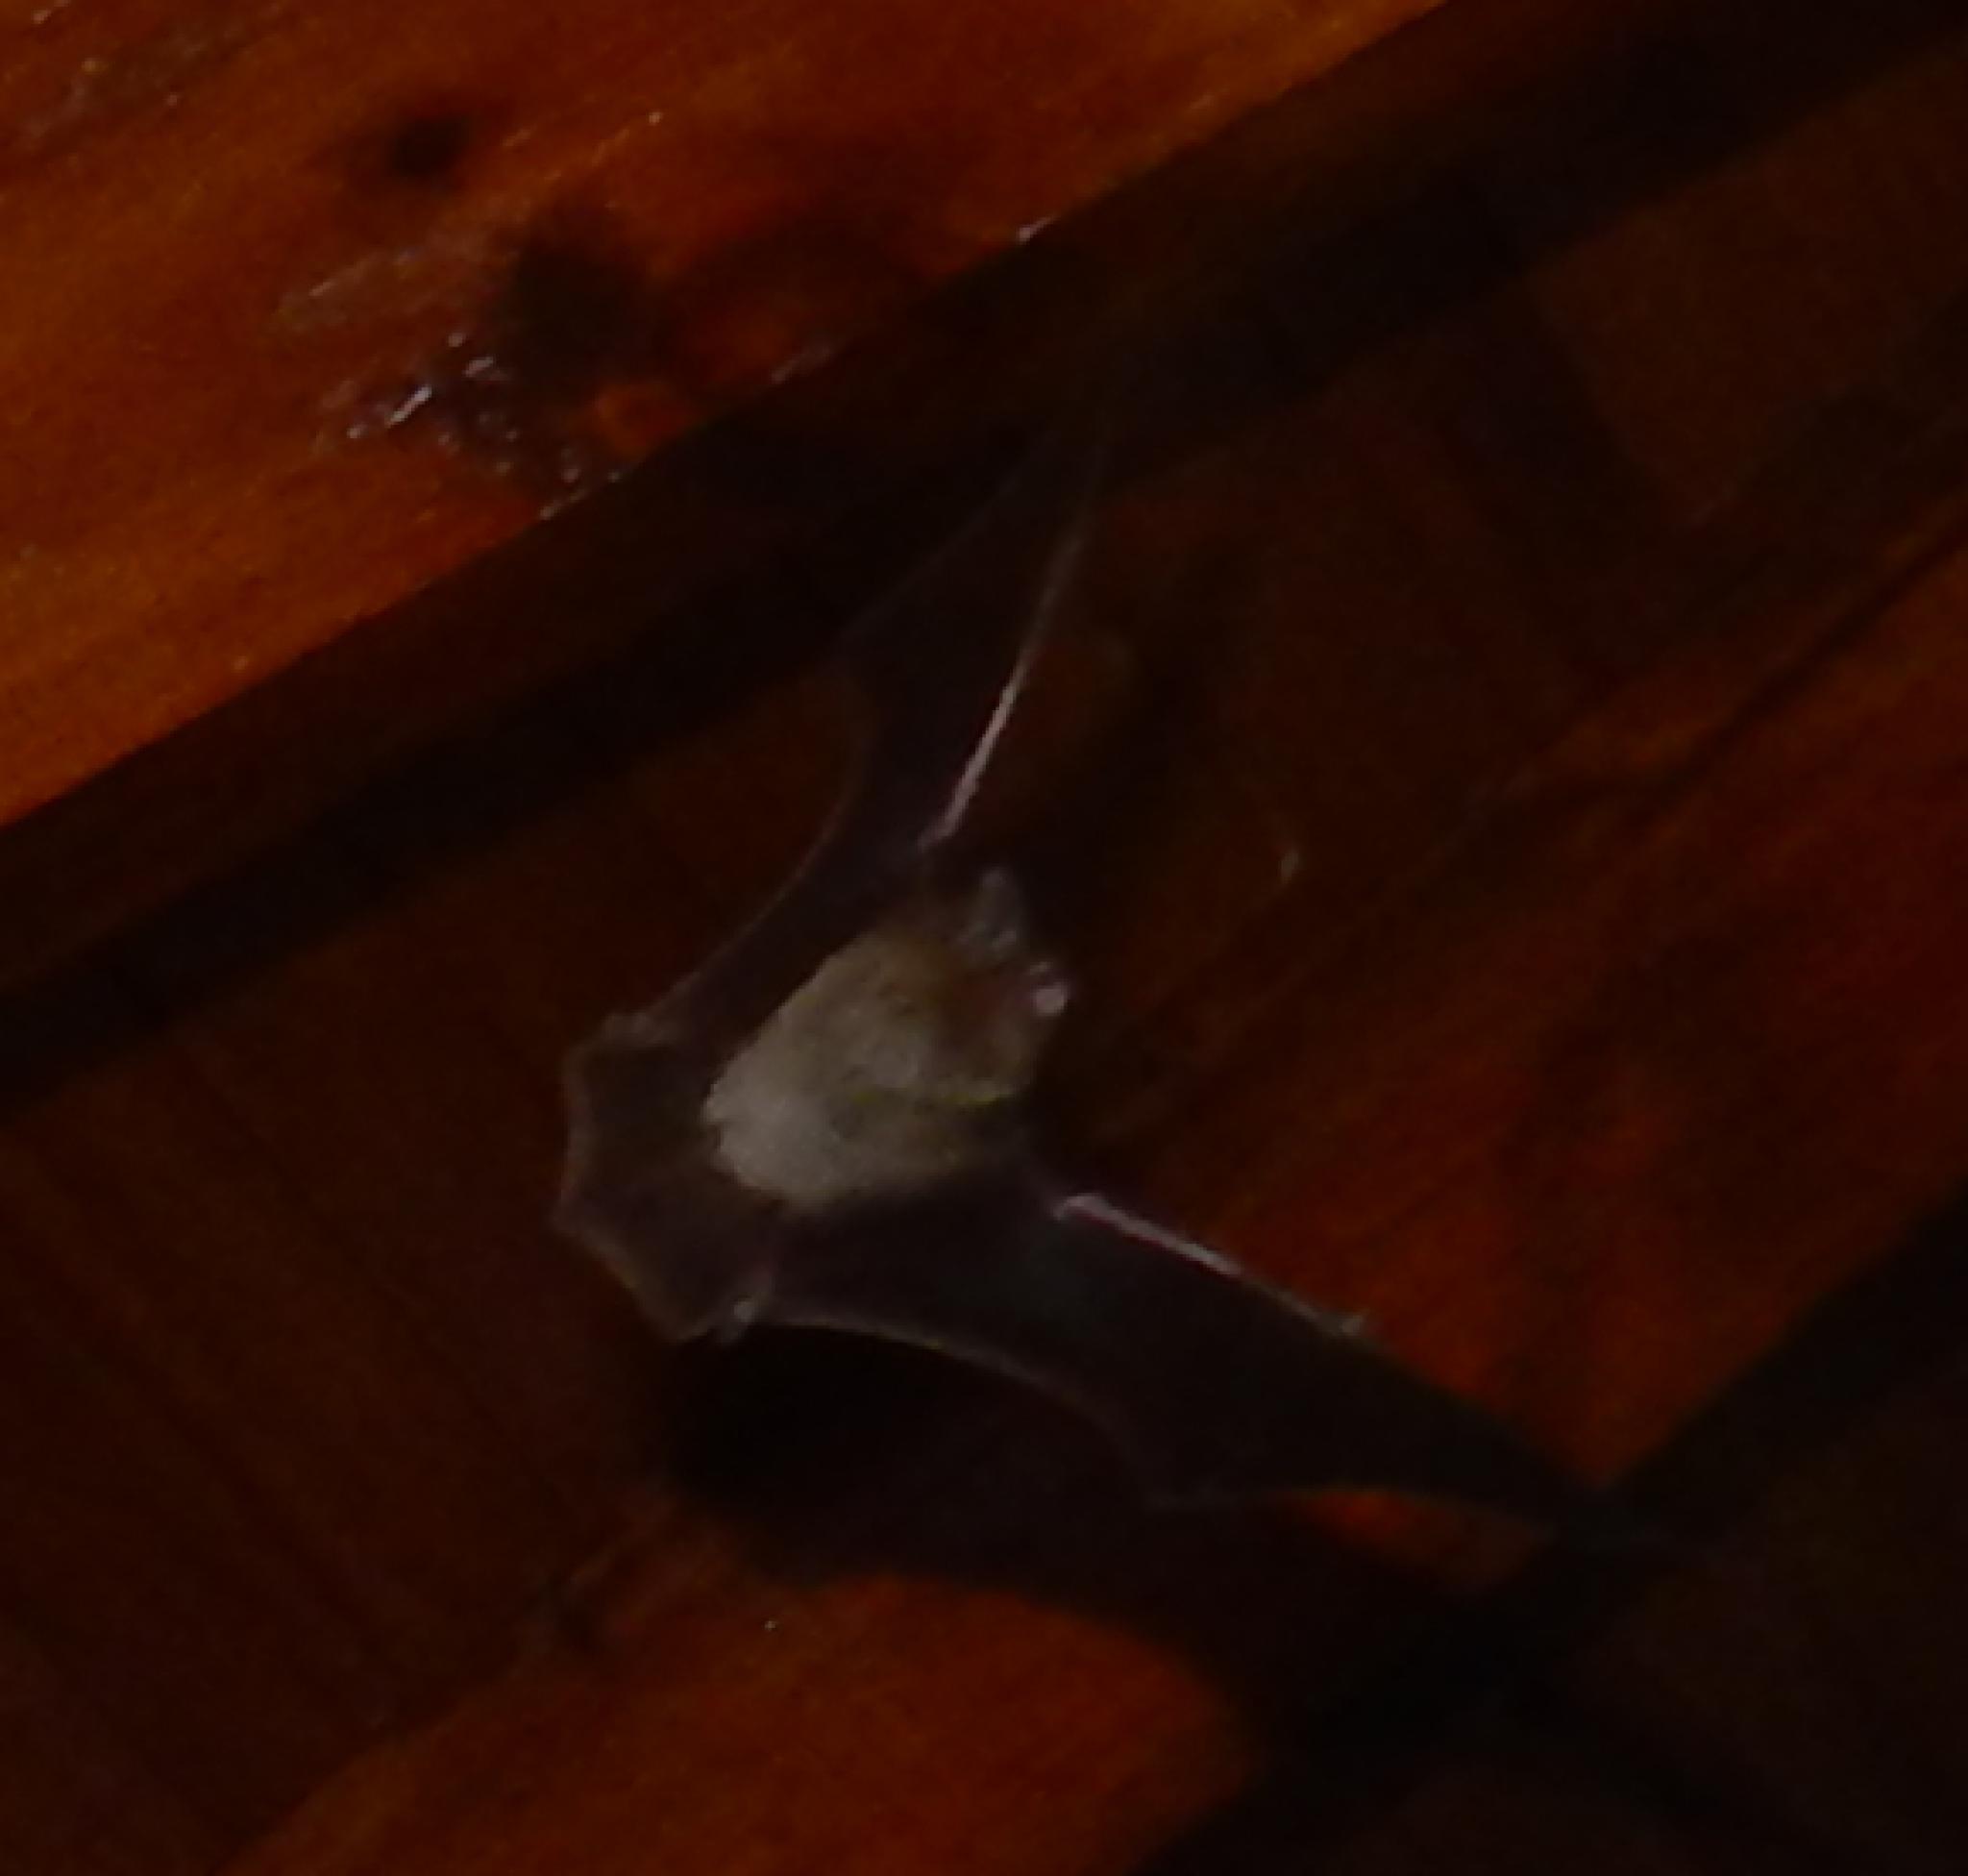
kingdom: Animalia
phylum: Chordata
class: Mammalia
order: Chiroptera
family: Vespertilionidae
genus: Laephotis
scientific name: Laephotis capensis
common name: Cape serotine
